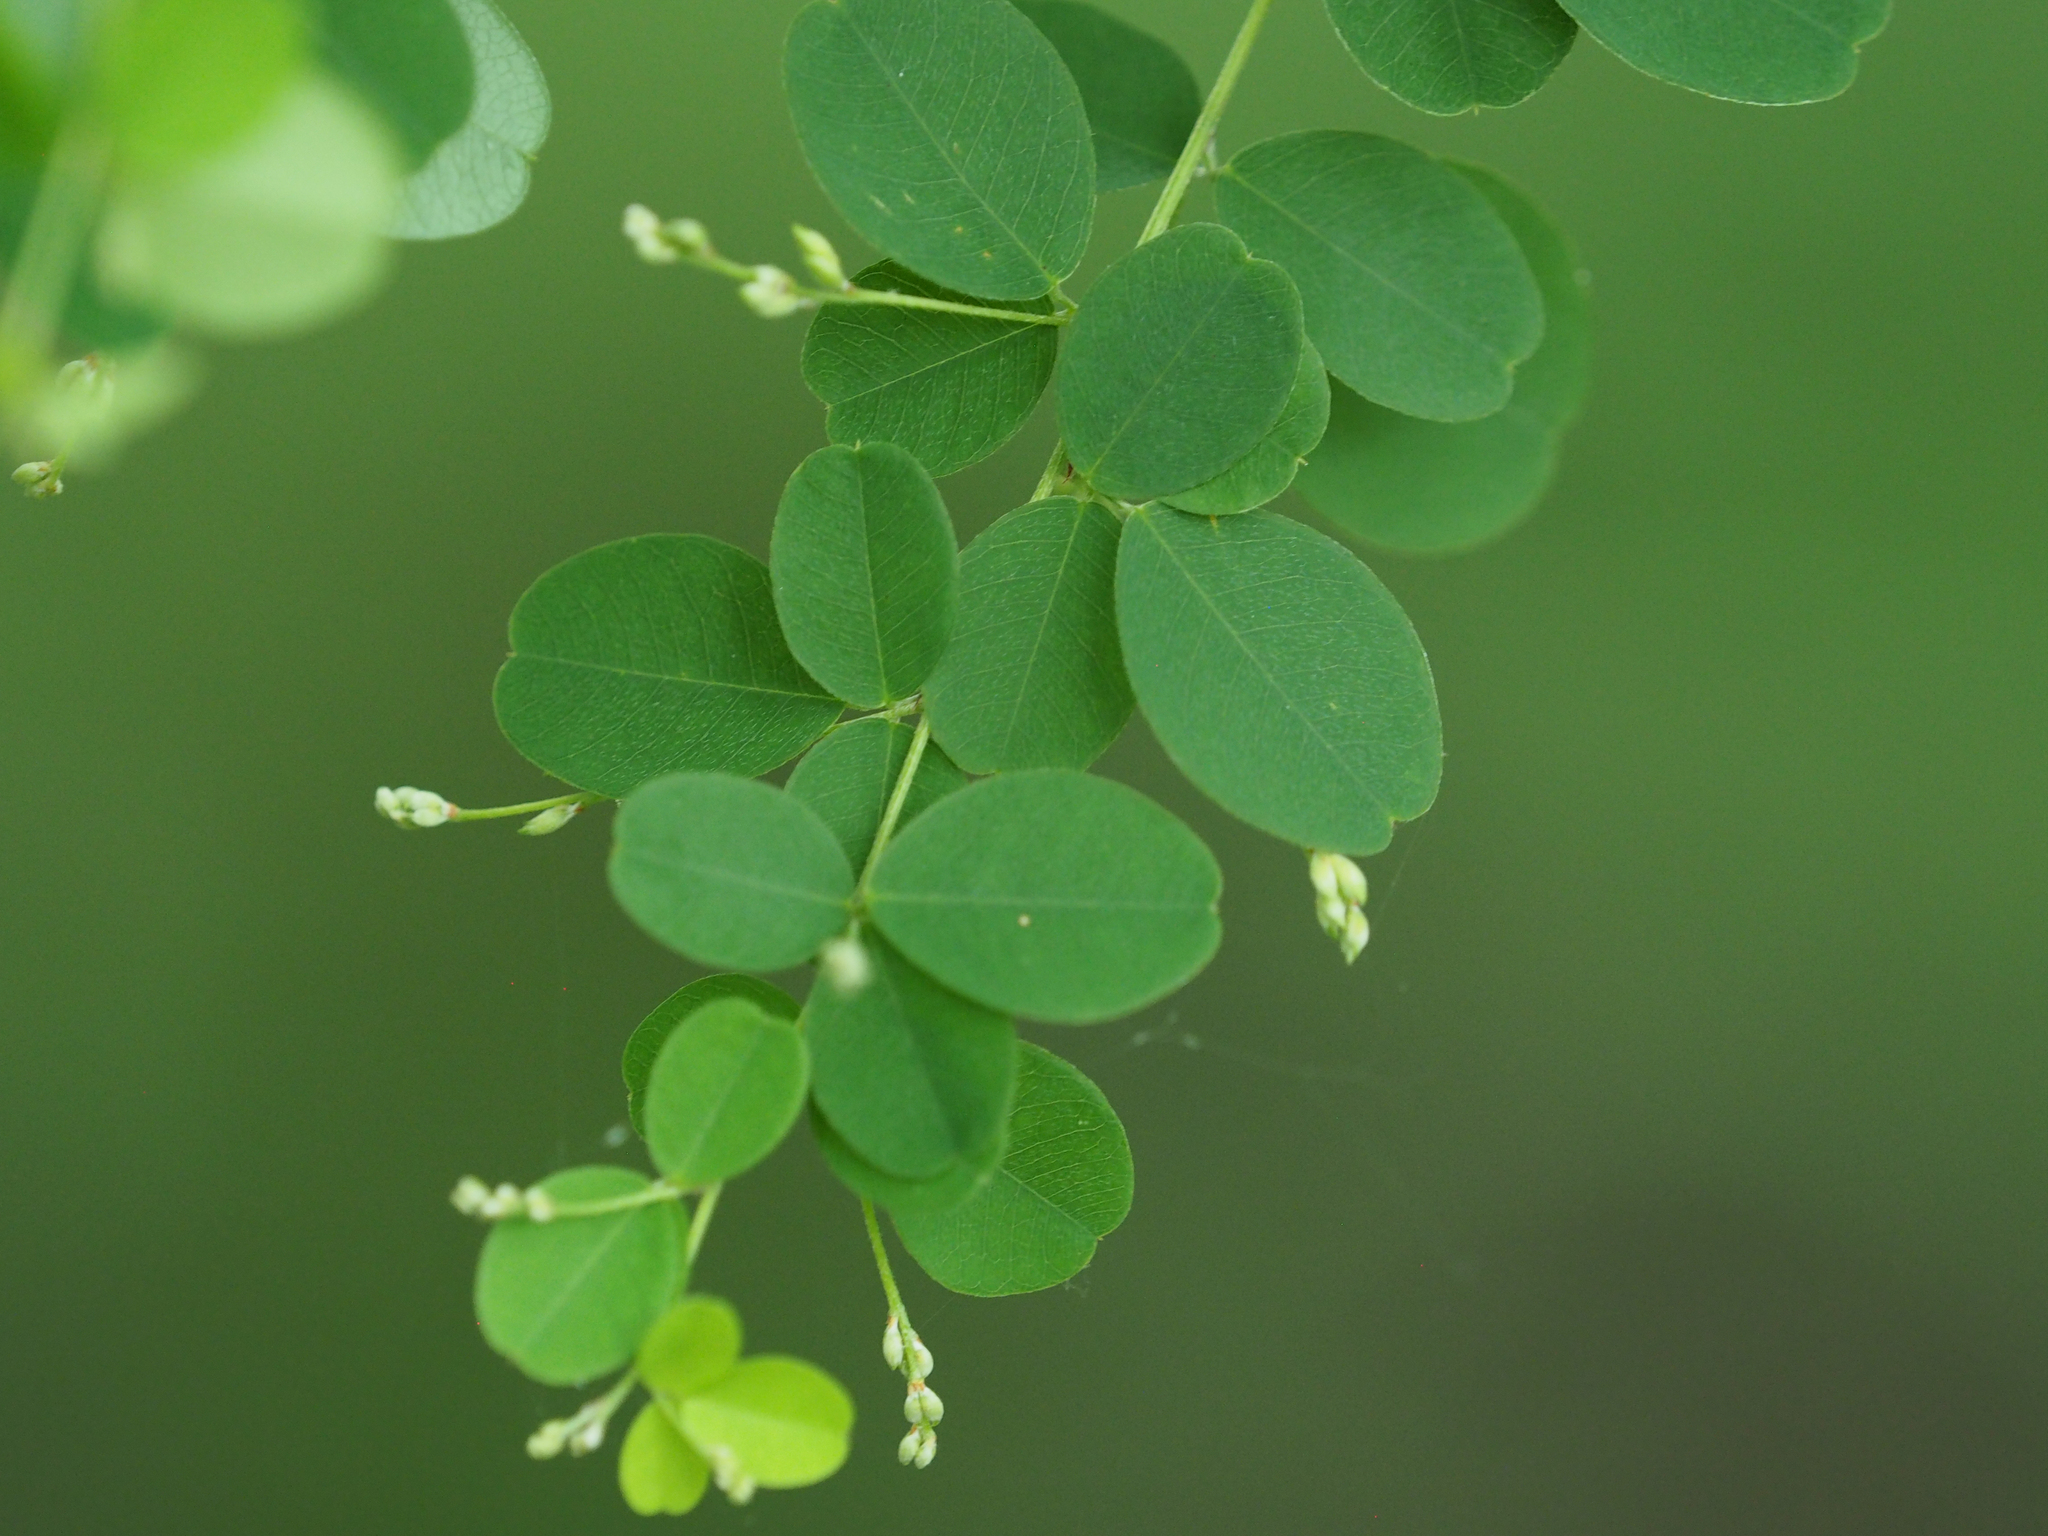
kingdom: Plantae
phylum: Tracheophyta
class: Magnoliopsida
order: Fabales
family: Fabaceae
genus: Lespedeza
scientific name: Lespedeza bicolor
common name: Shrub lespedeza
